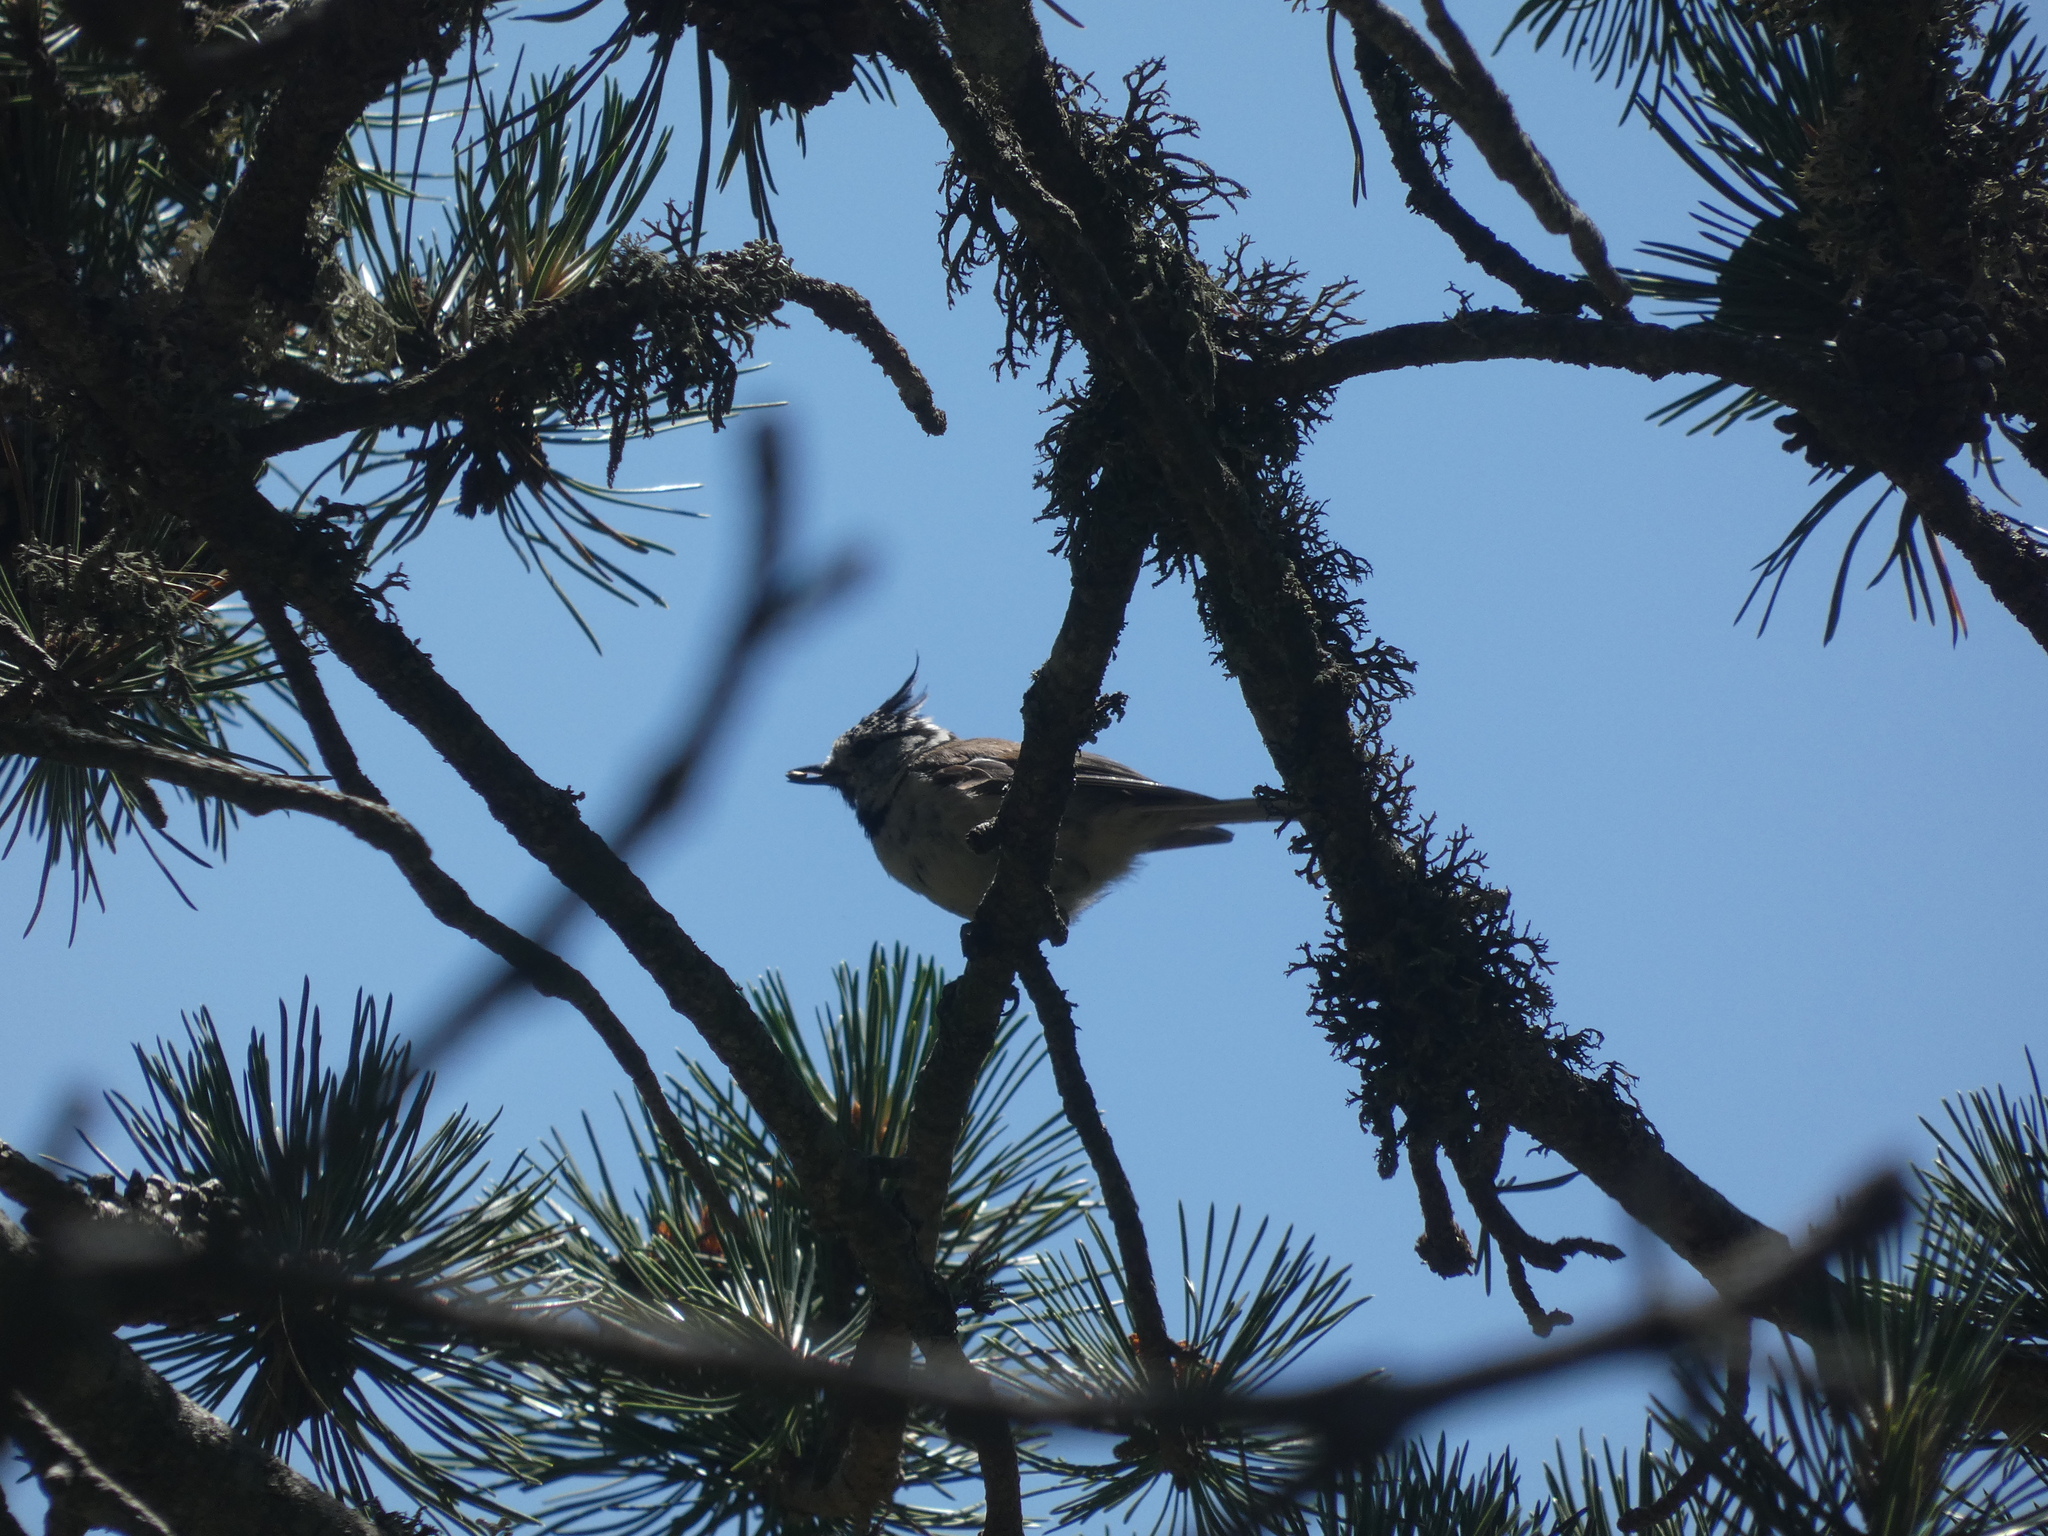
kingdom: Animalia
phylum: Chordata
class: Aves
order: Passeriformes
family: Paridae
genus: Lophophanes
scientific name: Lophophanes cristatus
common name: European crested tit
